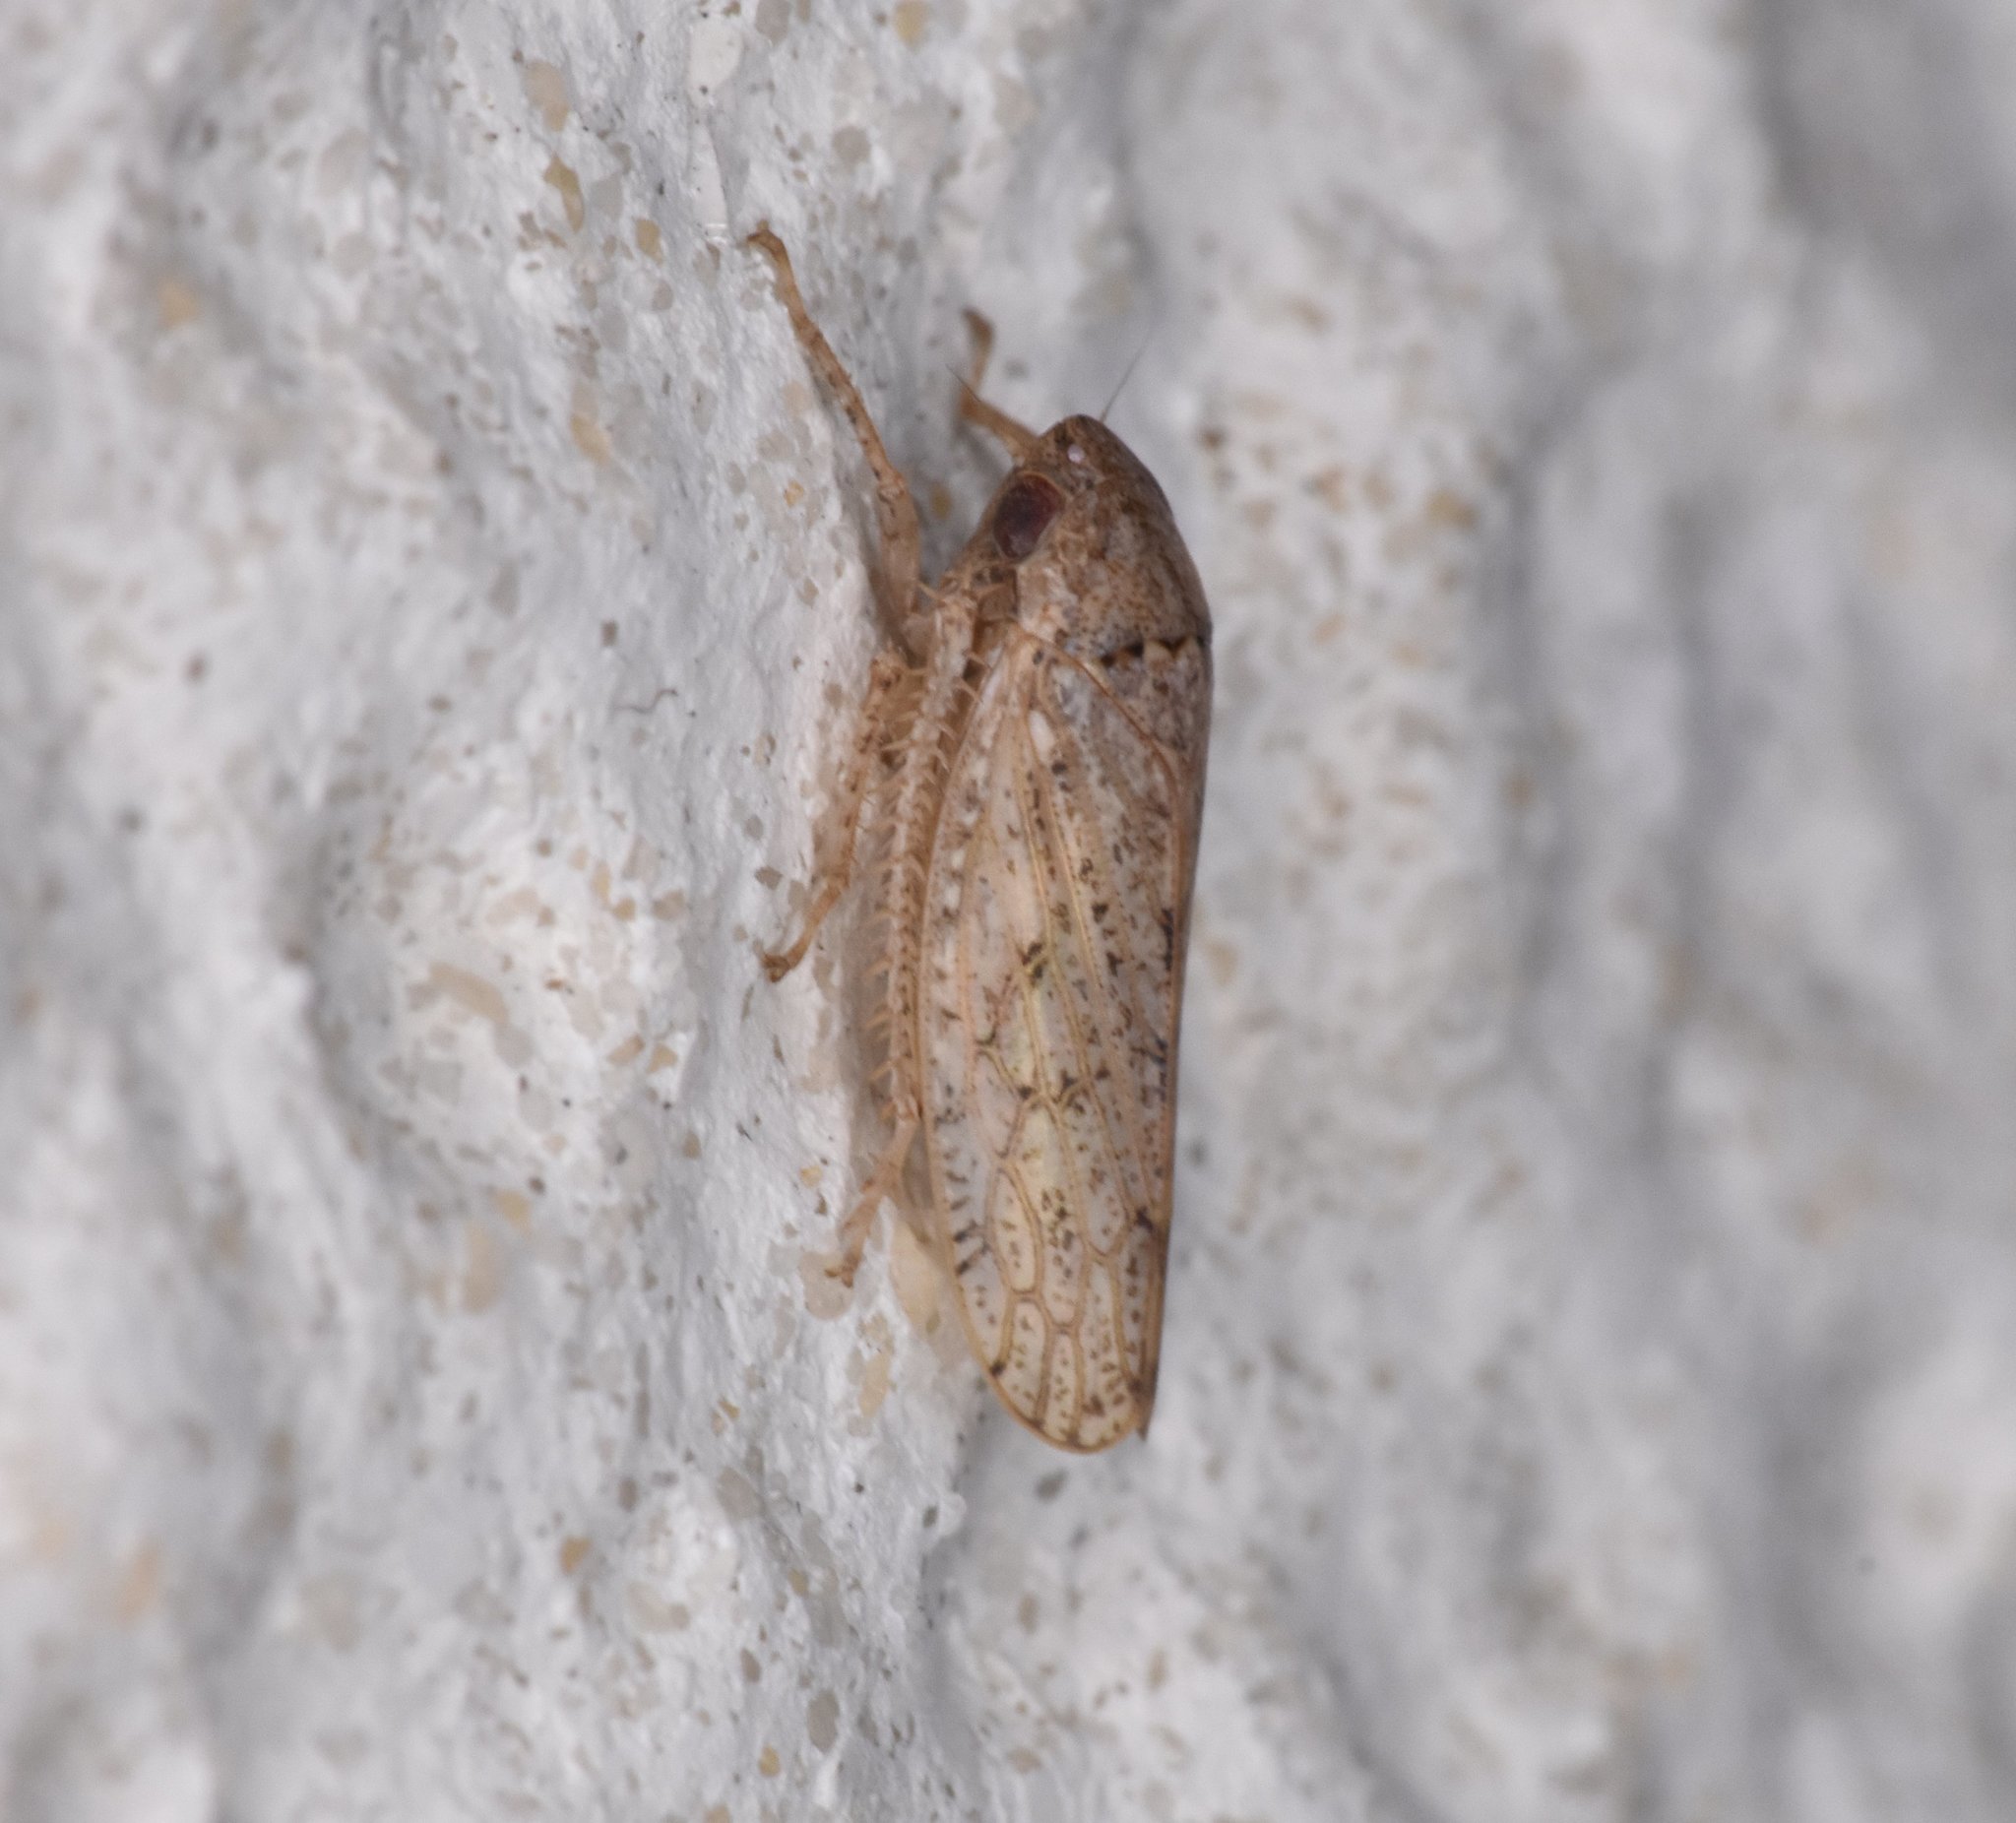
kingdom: Animalia
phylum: Arthropoda
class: Insecta
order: Hemiptera
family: Cicadellidae
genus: Curtara
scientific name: Curtara insularis
